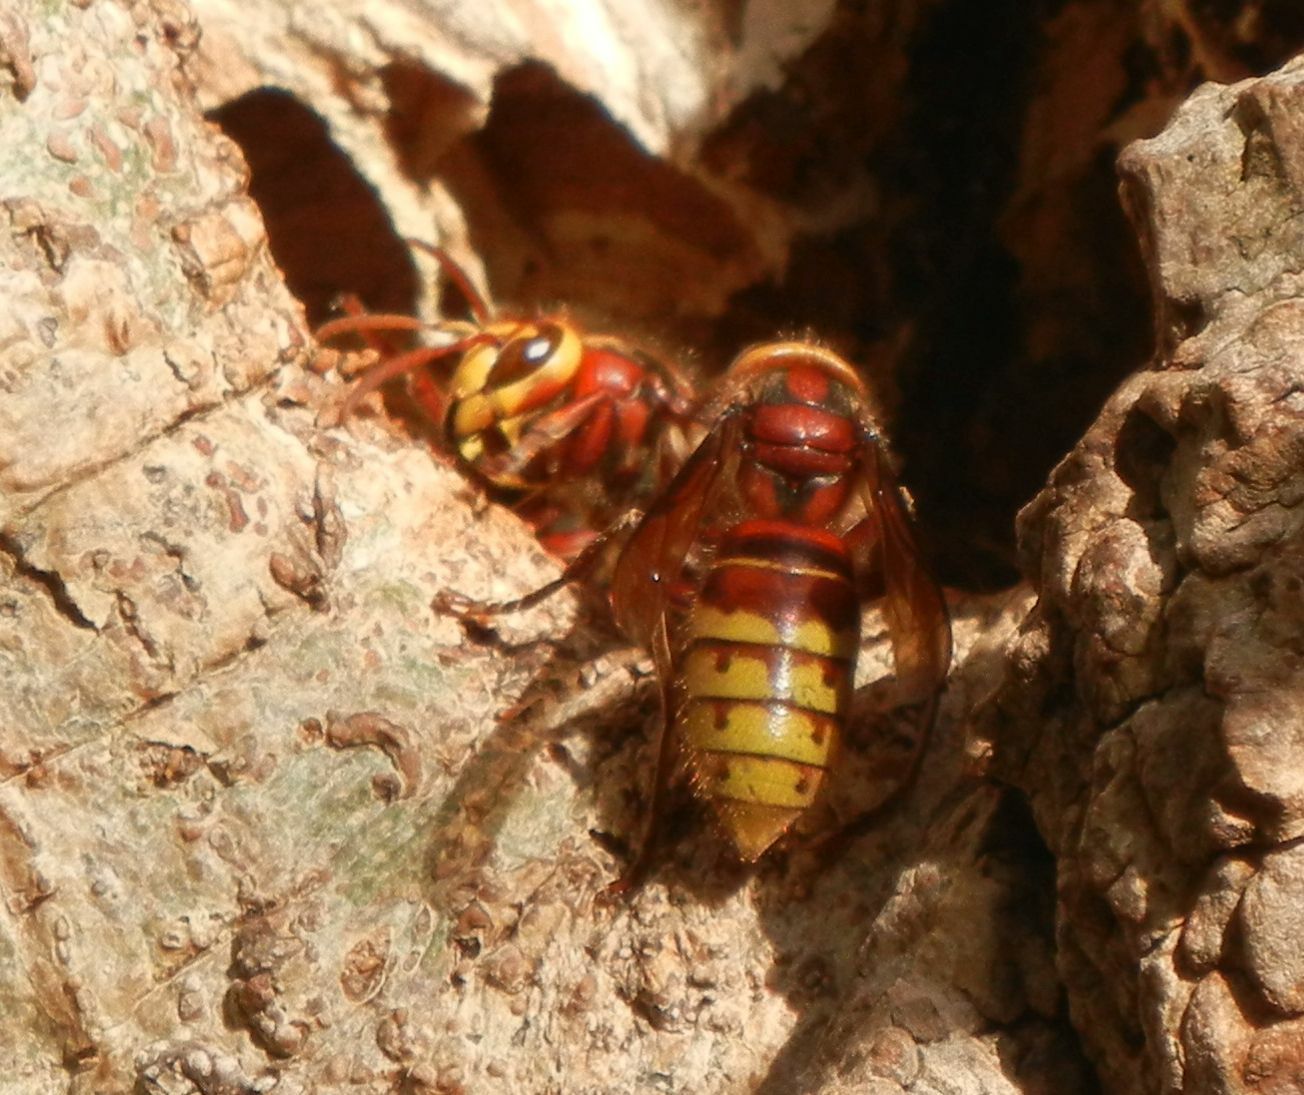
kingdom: Animalia
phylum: Arthropoda
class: Insecta
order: Hymenoptera
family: Vespidae
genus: Vespa
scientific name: Vespa crabro
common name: Hornet
